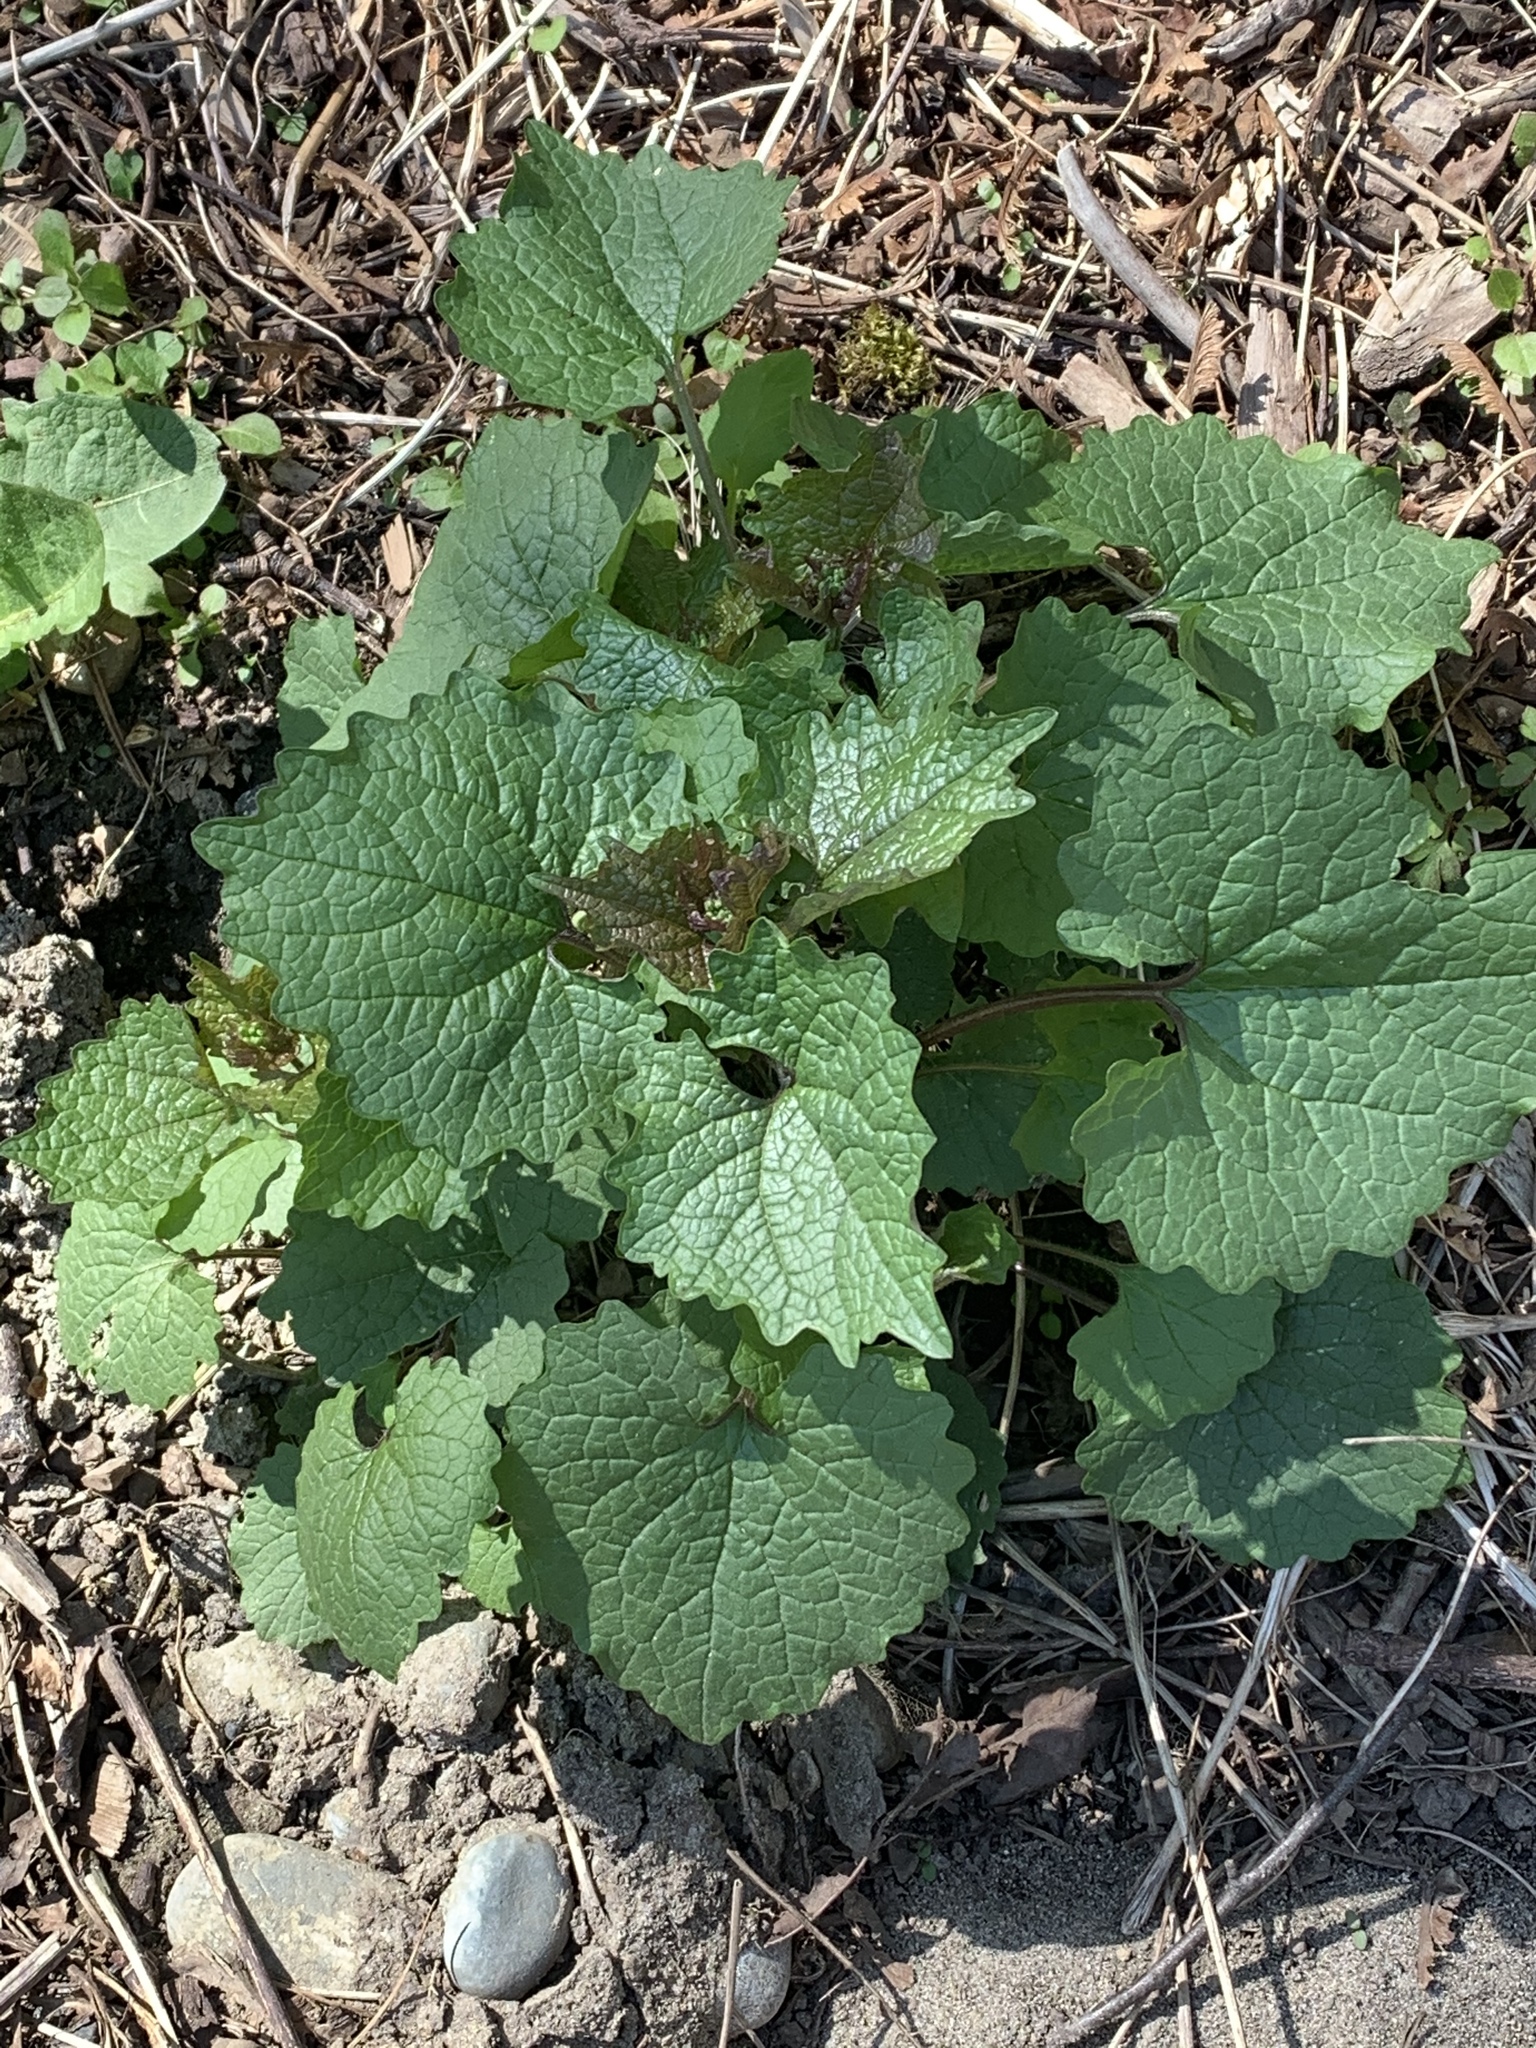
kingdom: Plantae
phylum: Tracheophyta
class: Magnoliopsida
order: Brassicales
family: Brassicaceae
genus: Alliaria
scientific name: Alliaria petiolata
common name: Garlic mustard
